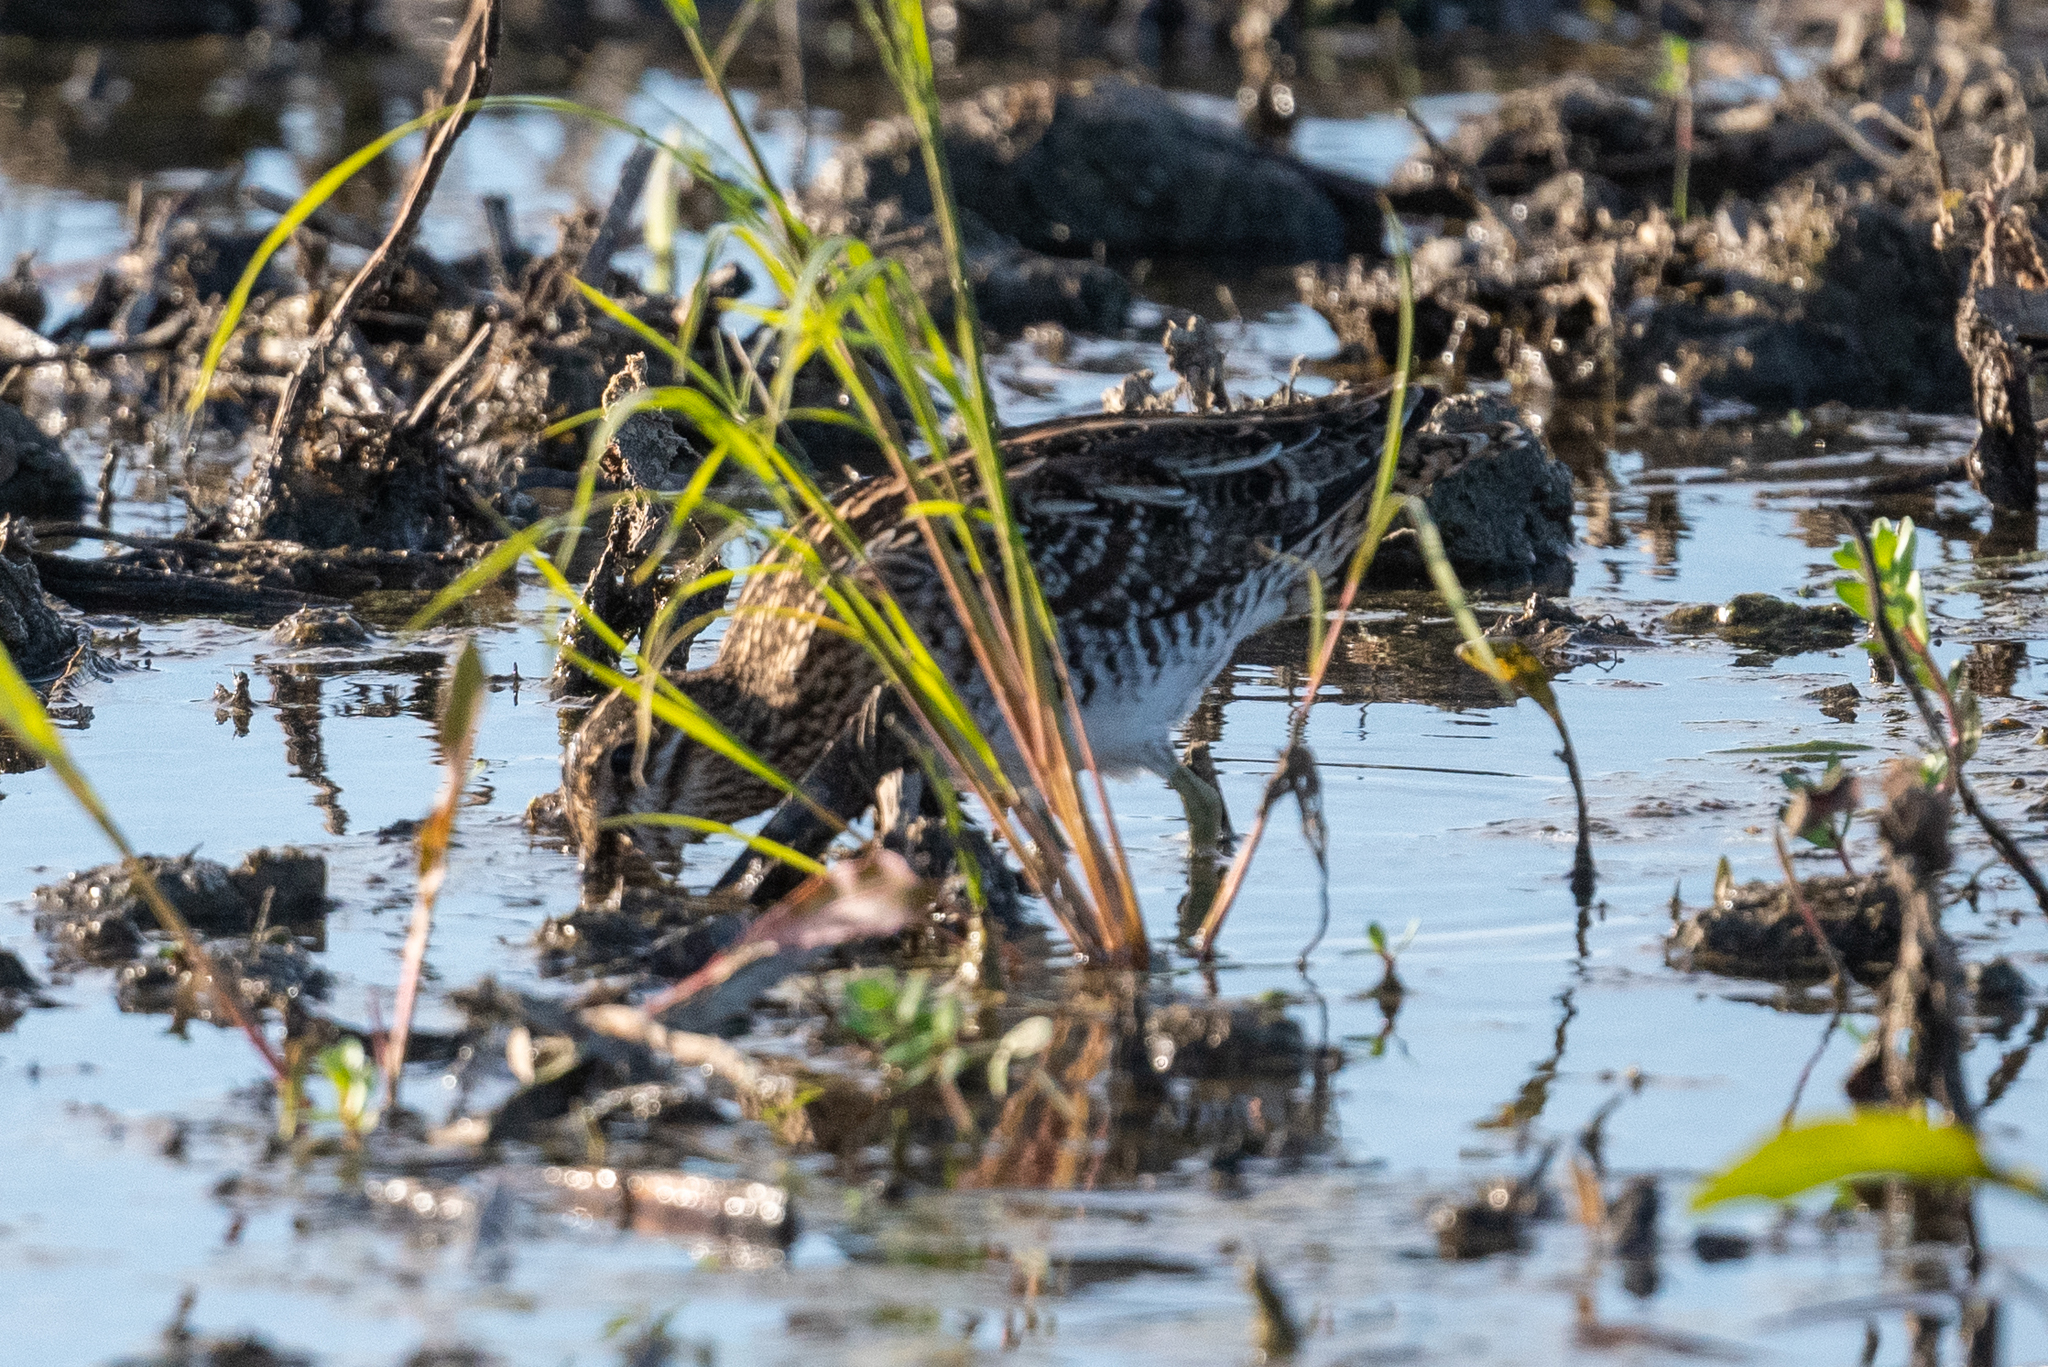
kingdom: Animalia
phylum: Chordata
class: Aves
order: Charadriiformes
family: Scolopacidae
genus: Gallinago
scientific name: Gallinago delicata
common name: Wilson's snipe
